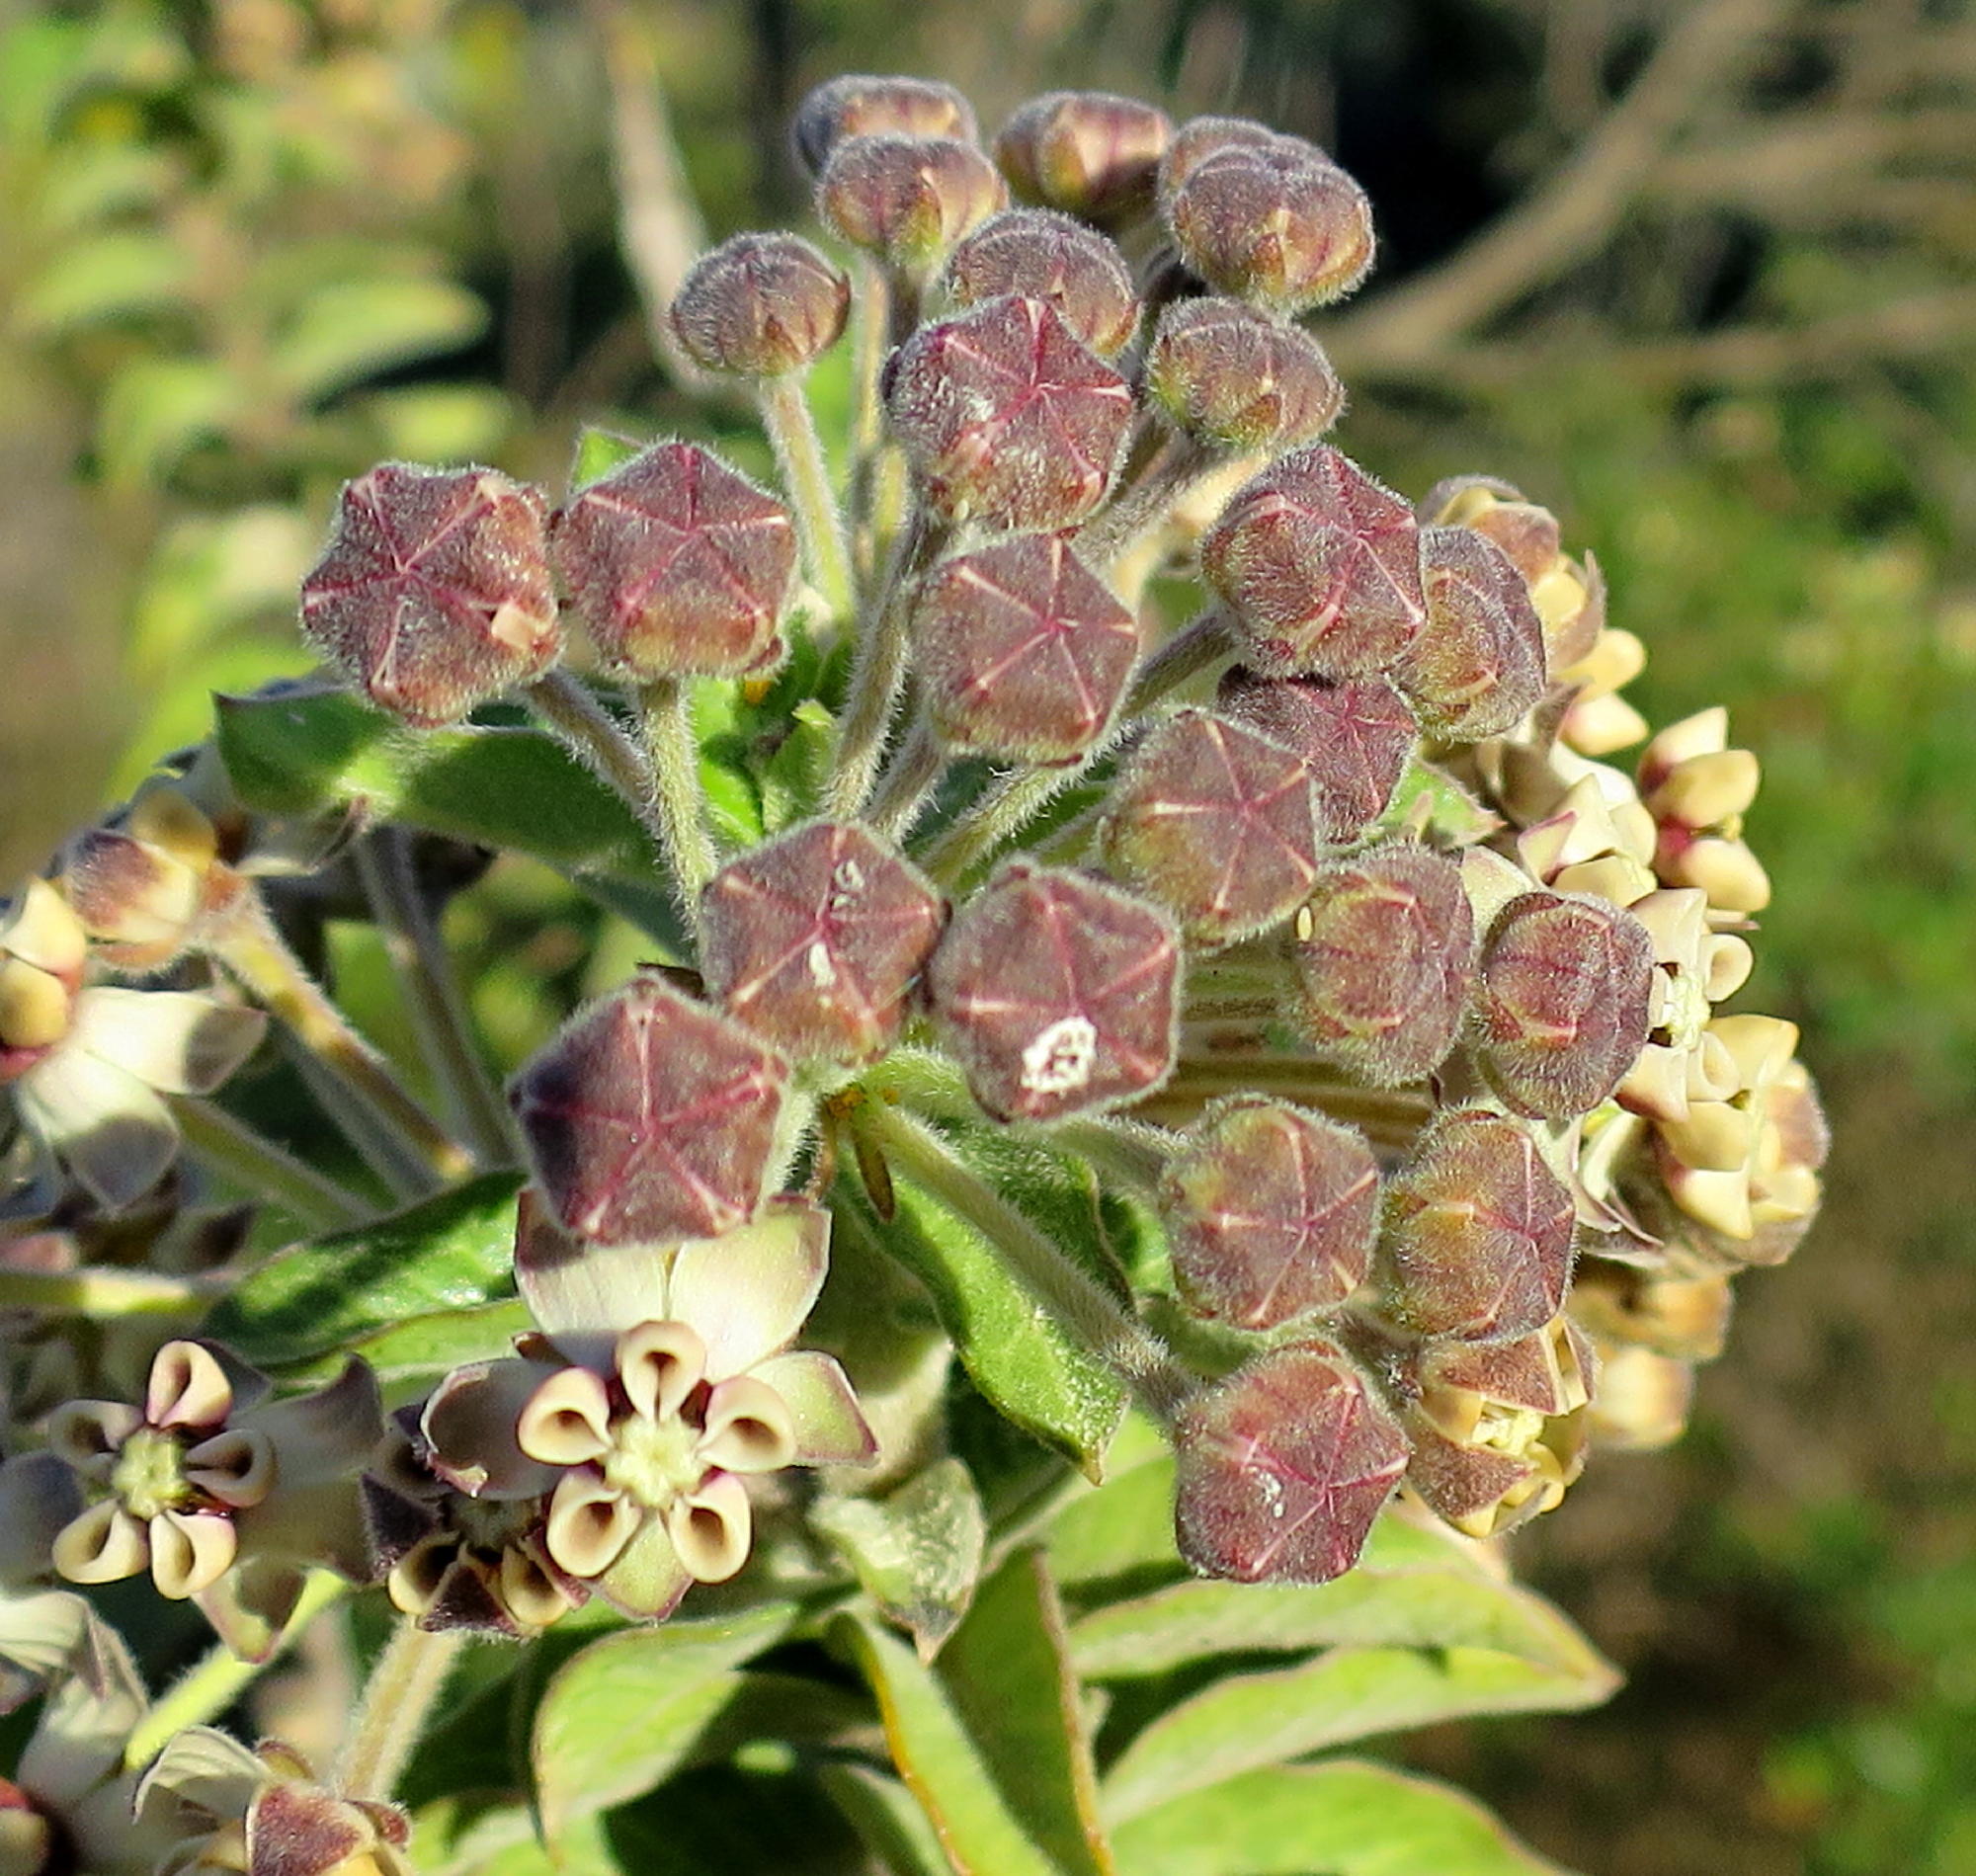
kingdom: Plantae
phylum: Tracheophyta
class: Magnoliopsida
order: Gentianales
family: Apocynaceae
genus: Gomphocarpus
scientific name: Gomphocarpus cancellatus
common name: Wild cotton
